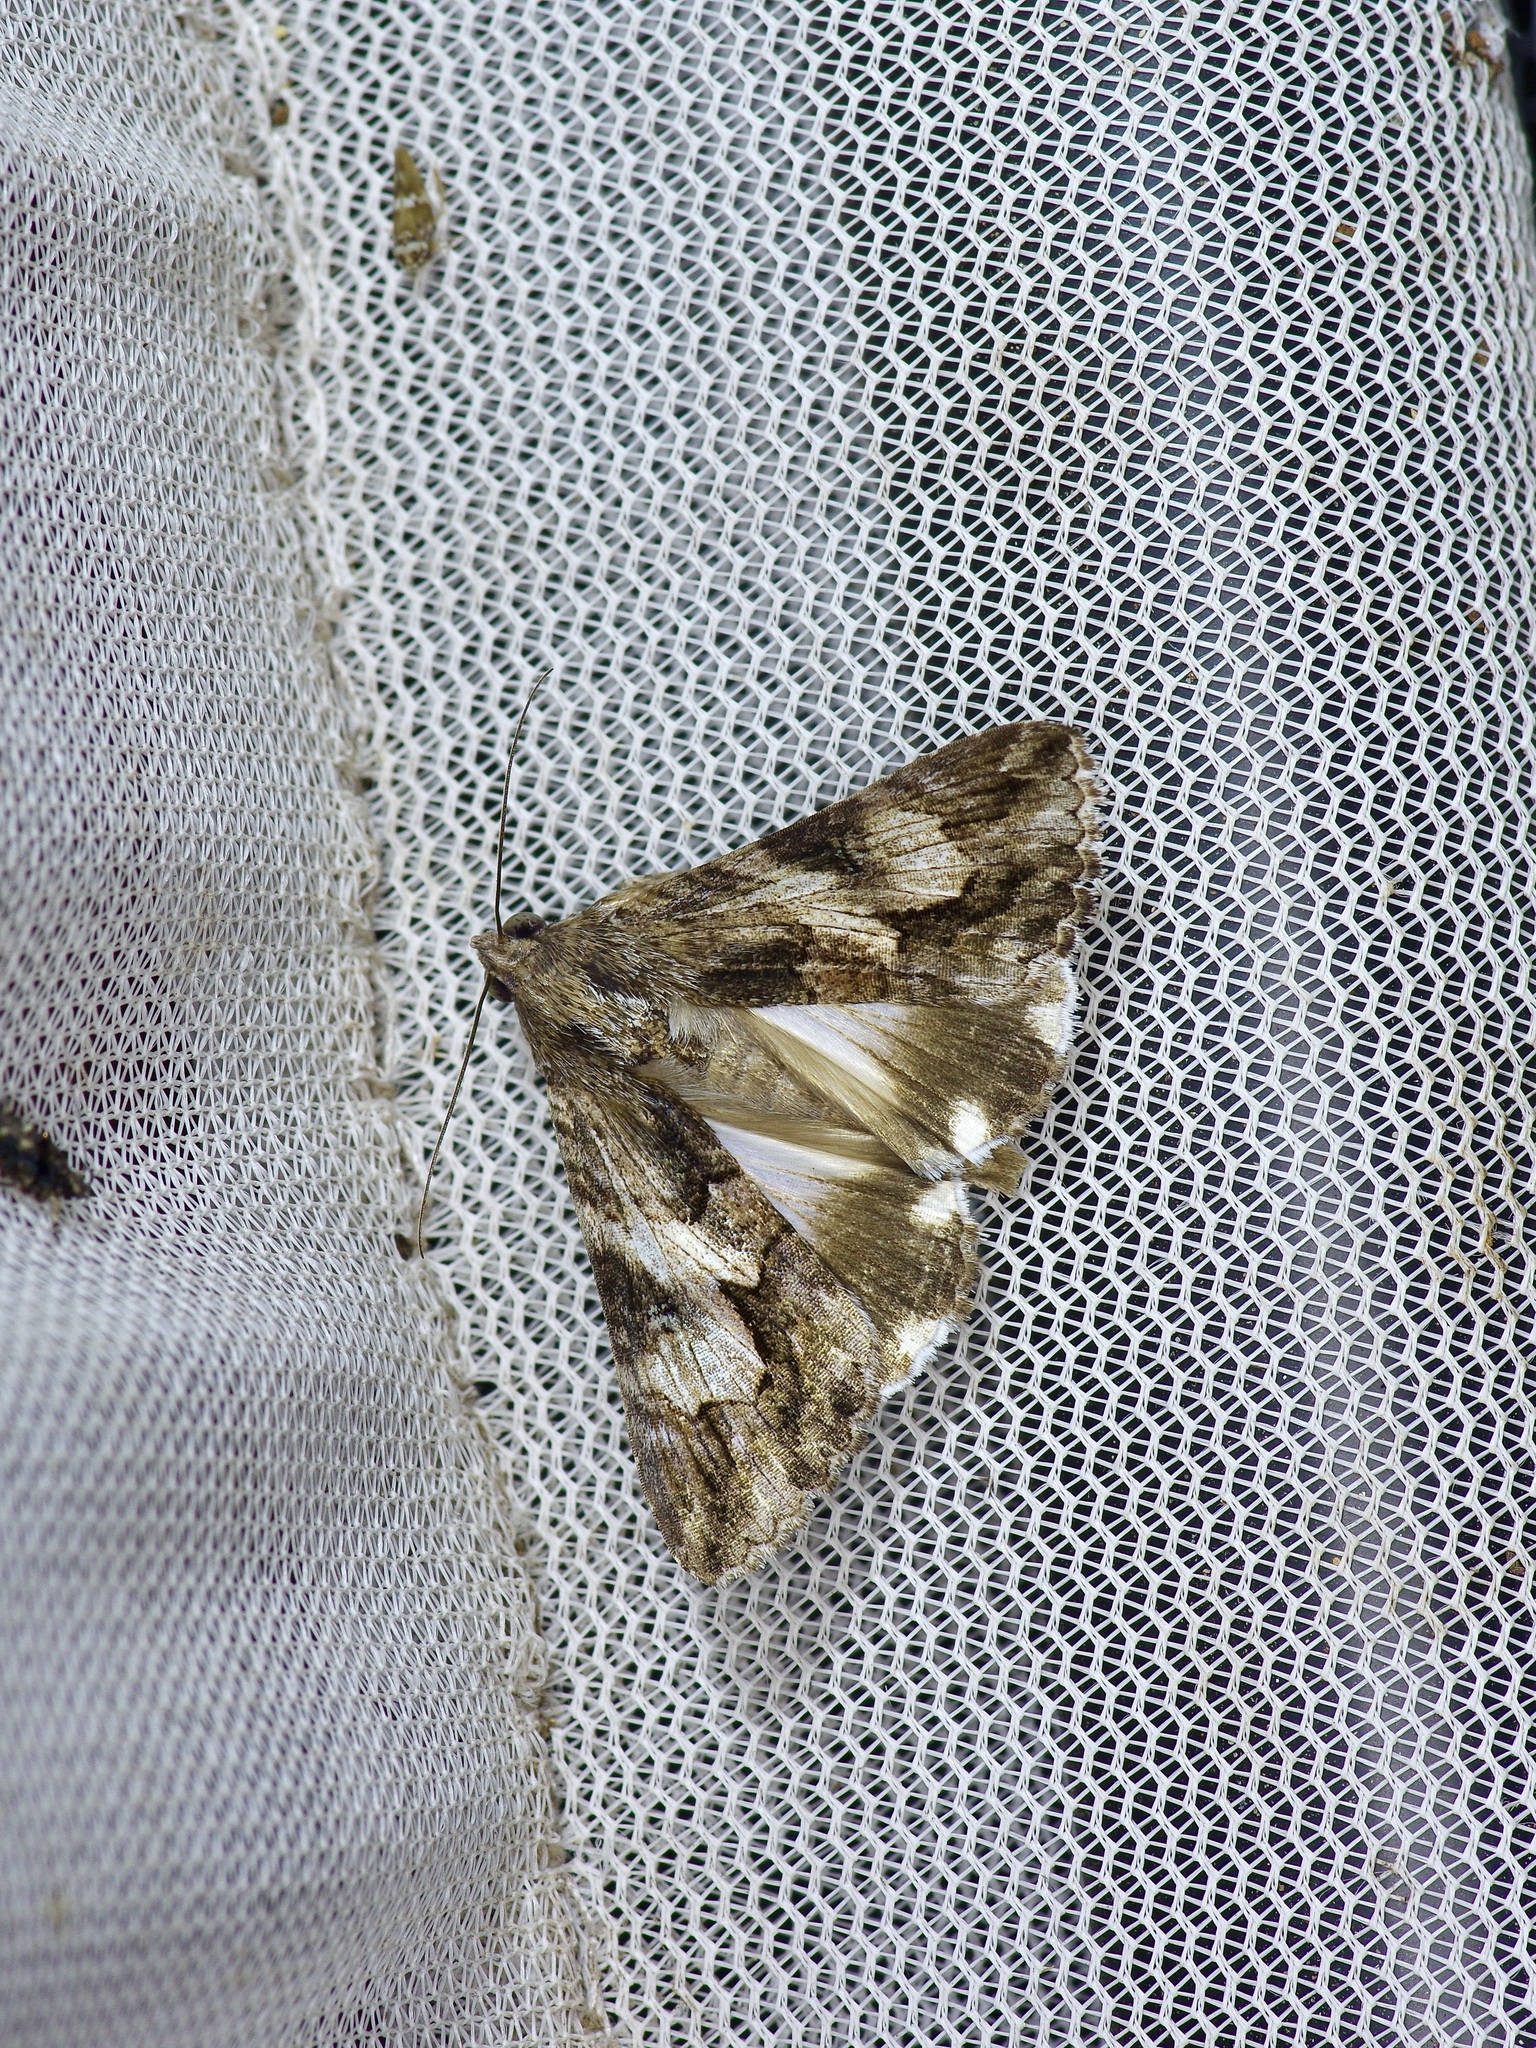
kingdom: Animalia
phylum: Arthropoda
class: Insecta
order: Lepidoptera
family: Erebidae
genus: Melipotis
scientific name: Melipotis jucunda
